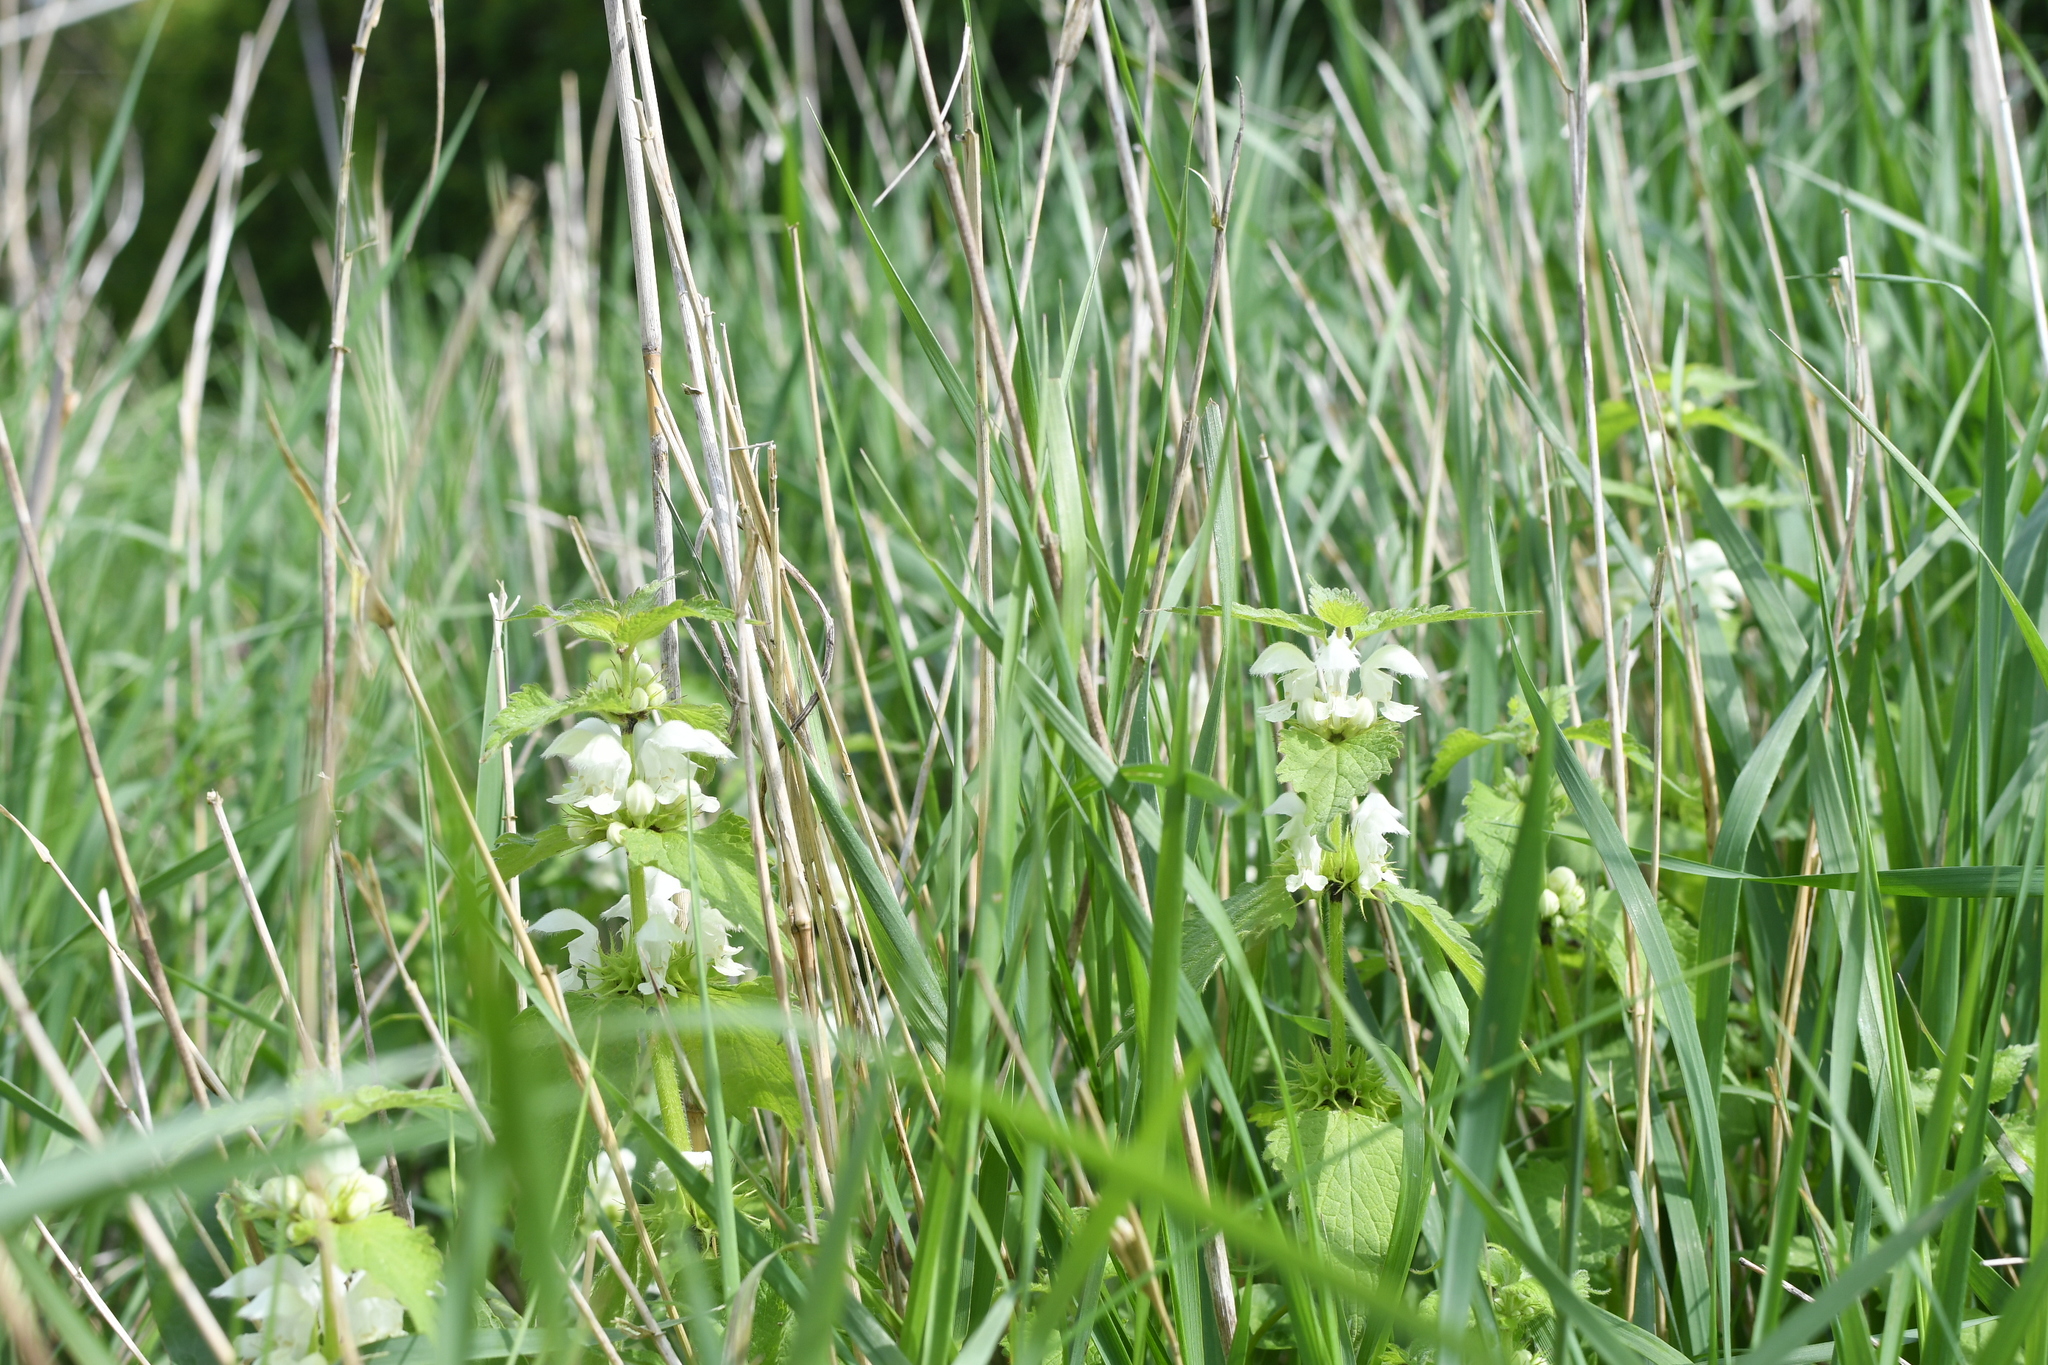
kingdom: Plantae
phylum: Tracheophyta
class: Magnoliopsida
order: Lamiales
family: Lamiaceae
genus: Lamium
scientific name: Lamium album
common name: White dead-nettle
